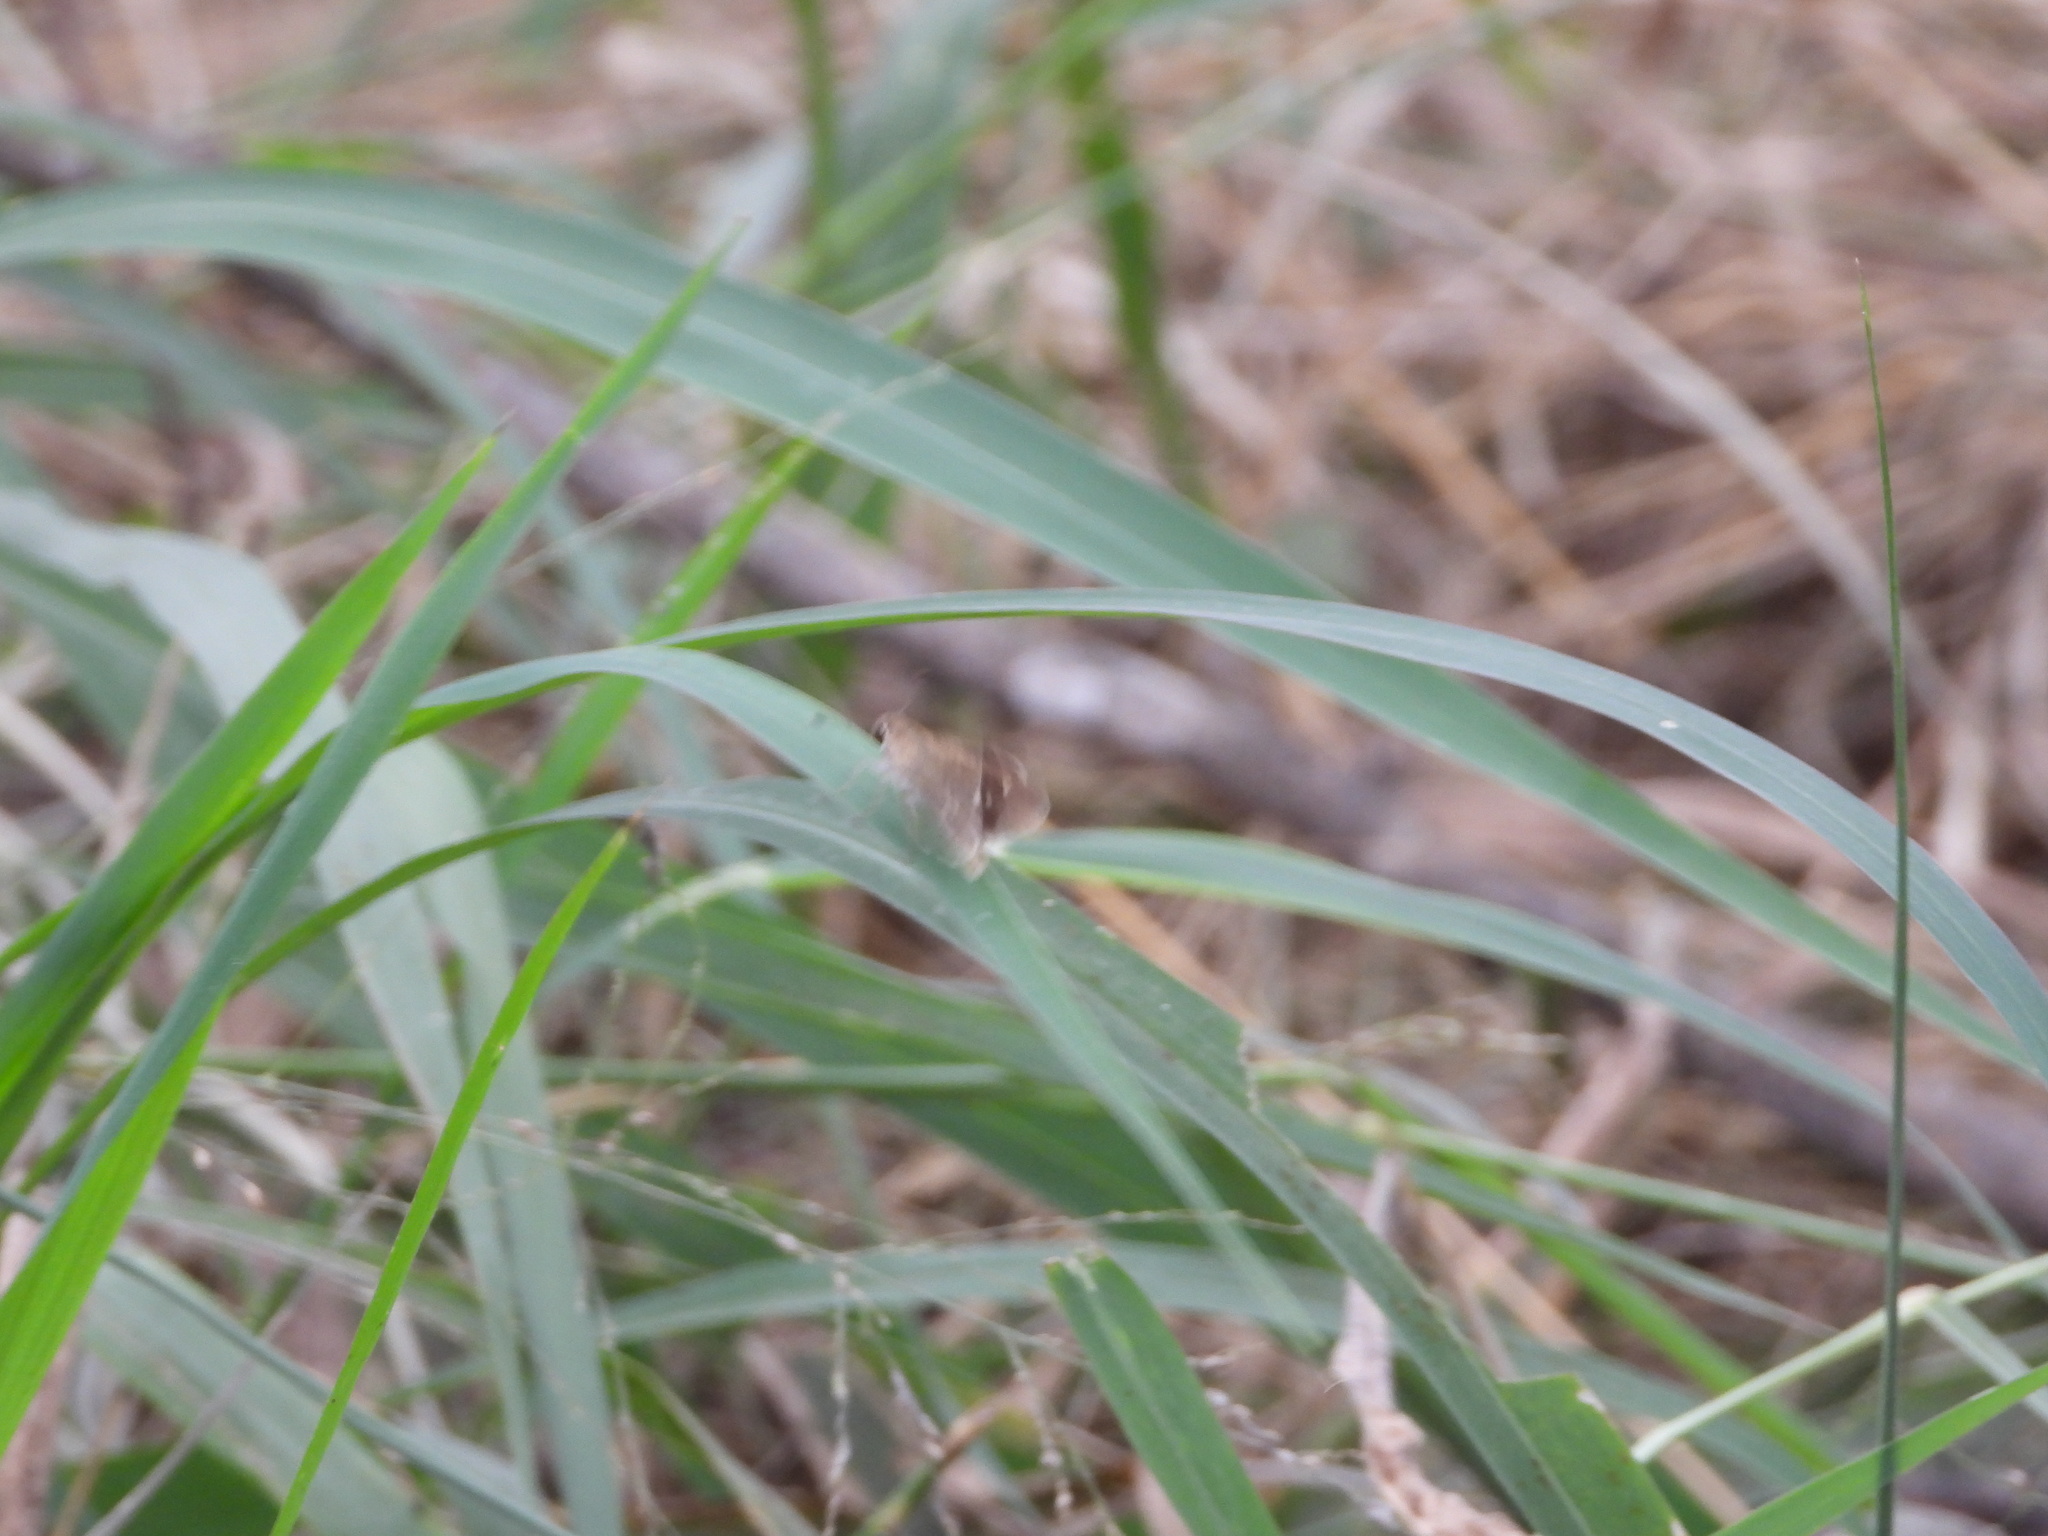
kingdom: Animalia
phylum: Arthropoda
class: Insecta
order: Lepidoptera
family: Hesperiidae
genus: Lerodea
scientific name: Lerodea eufala
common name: Eufala skipper
